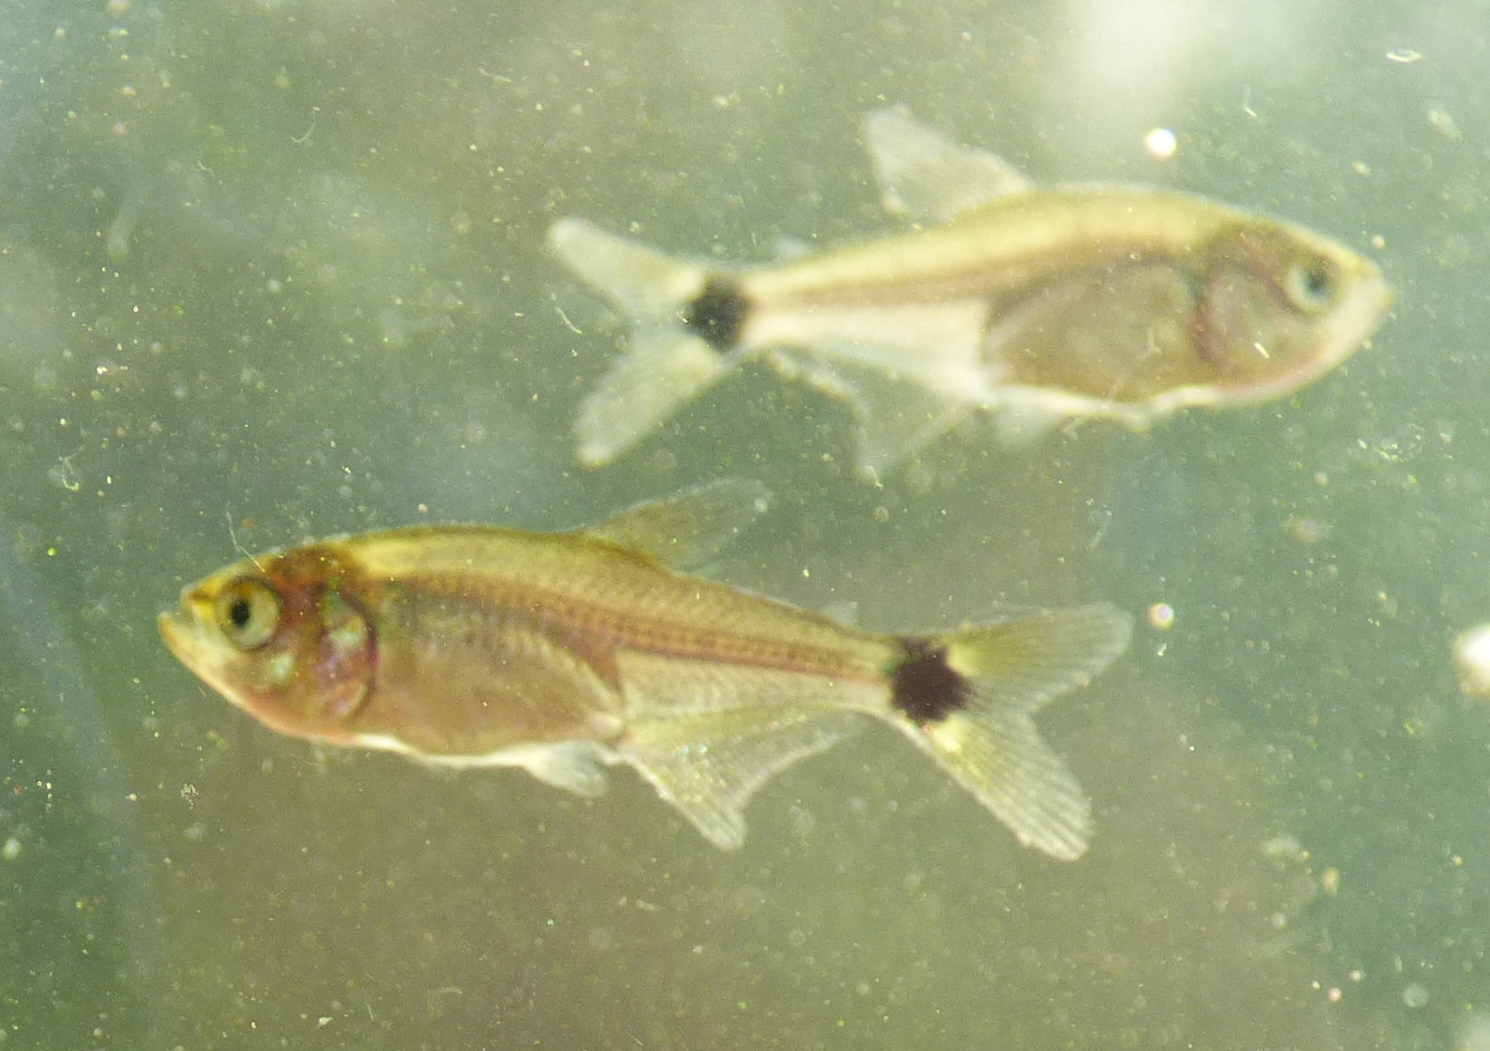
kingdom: Animalia
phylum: Chordata
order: Characiformes
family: Characidae
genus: Odontostilbe
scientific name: Odontostilbe paraguayensis
